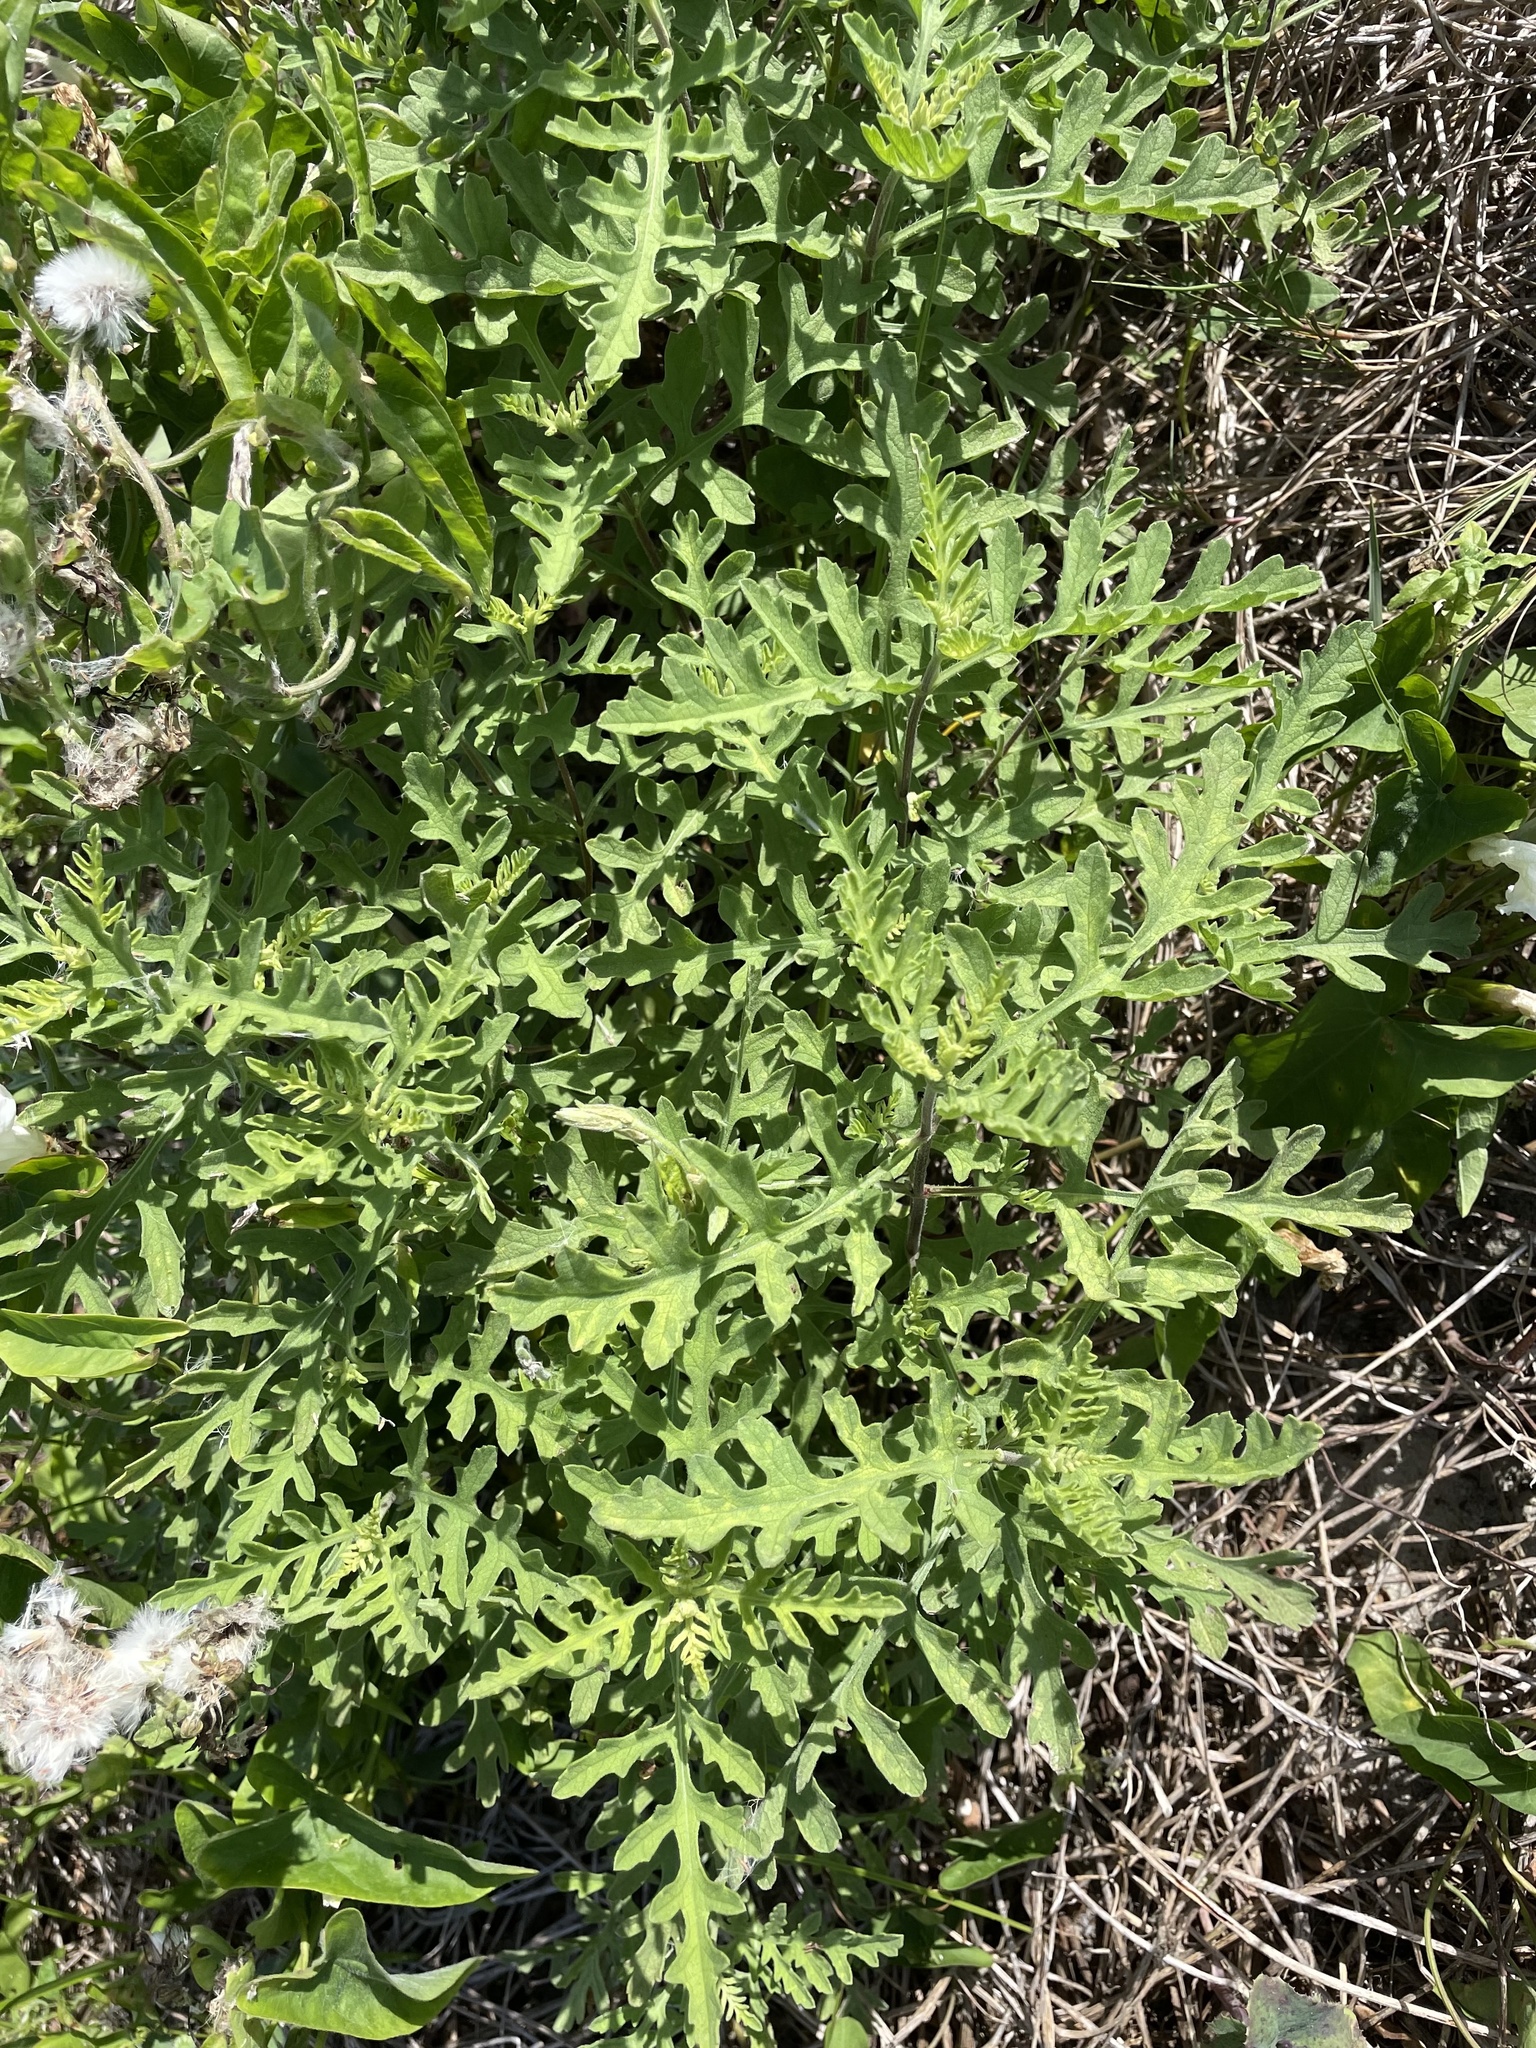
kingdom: Plantae
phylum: Tracheophyta
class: Magnoliopsida
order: Asterales
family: Asteraceae
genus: Ambrosia
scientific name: Ambrosia psilostachya
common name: Perennial ragweed
